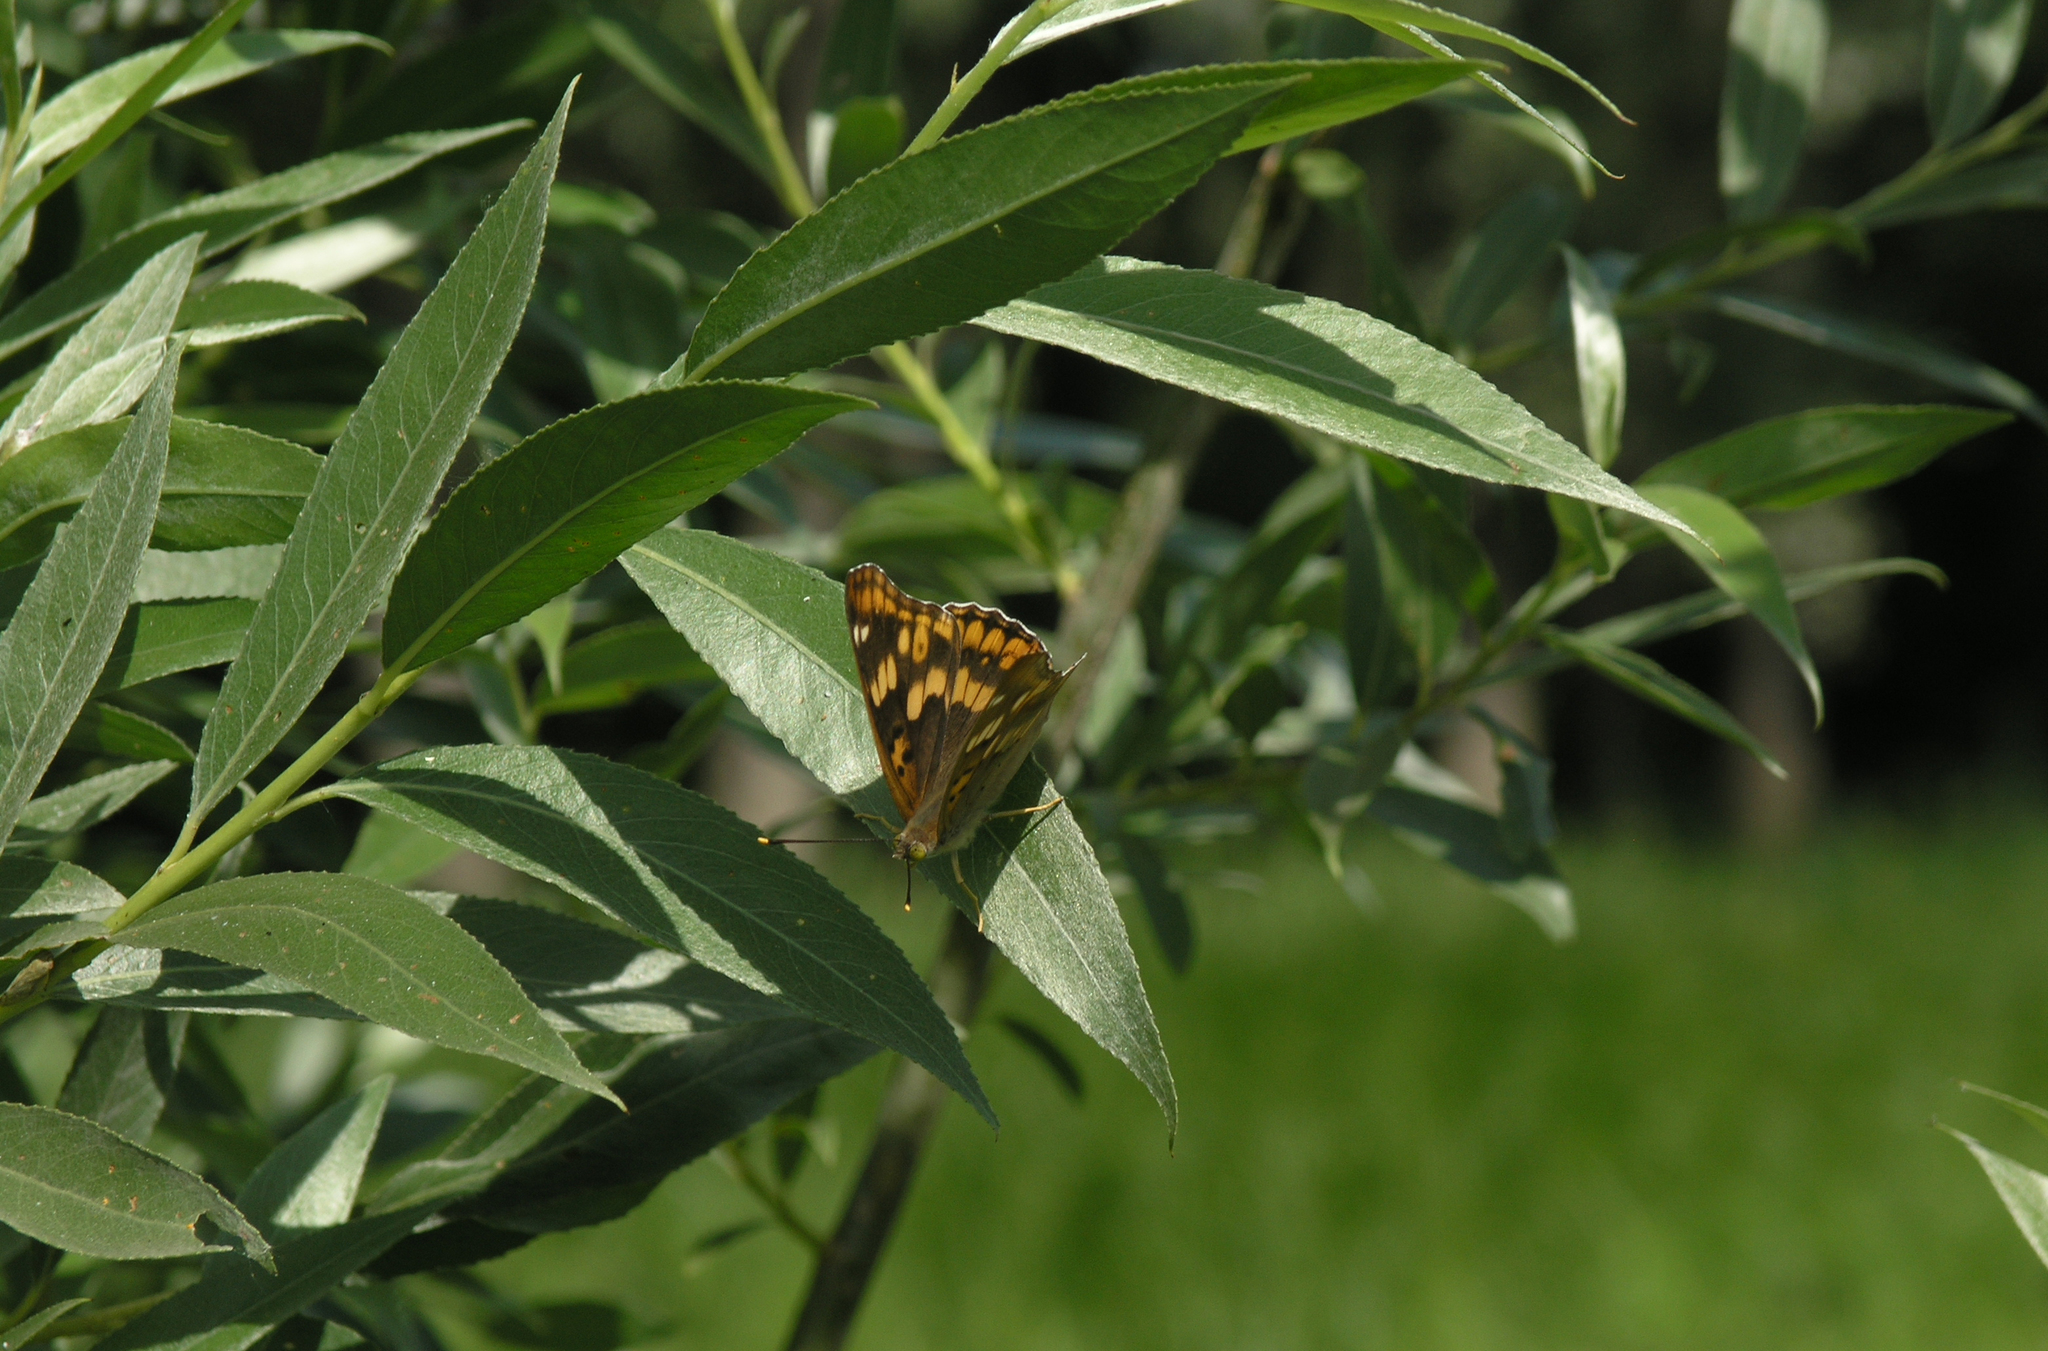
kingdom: Animalia
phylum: Arthropoda
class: Insecta
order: Lepidoptera
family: Nymphalidae
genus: Apatura
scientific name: Apatura ilia
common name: Lesser purple emperor
